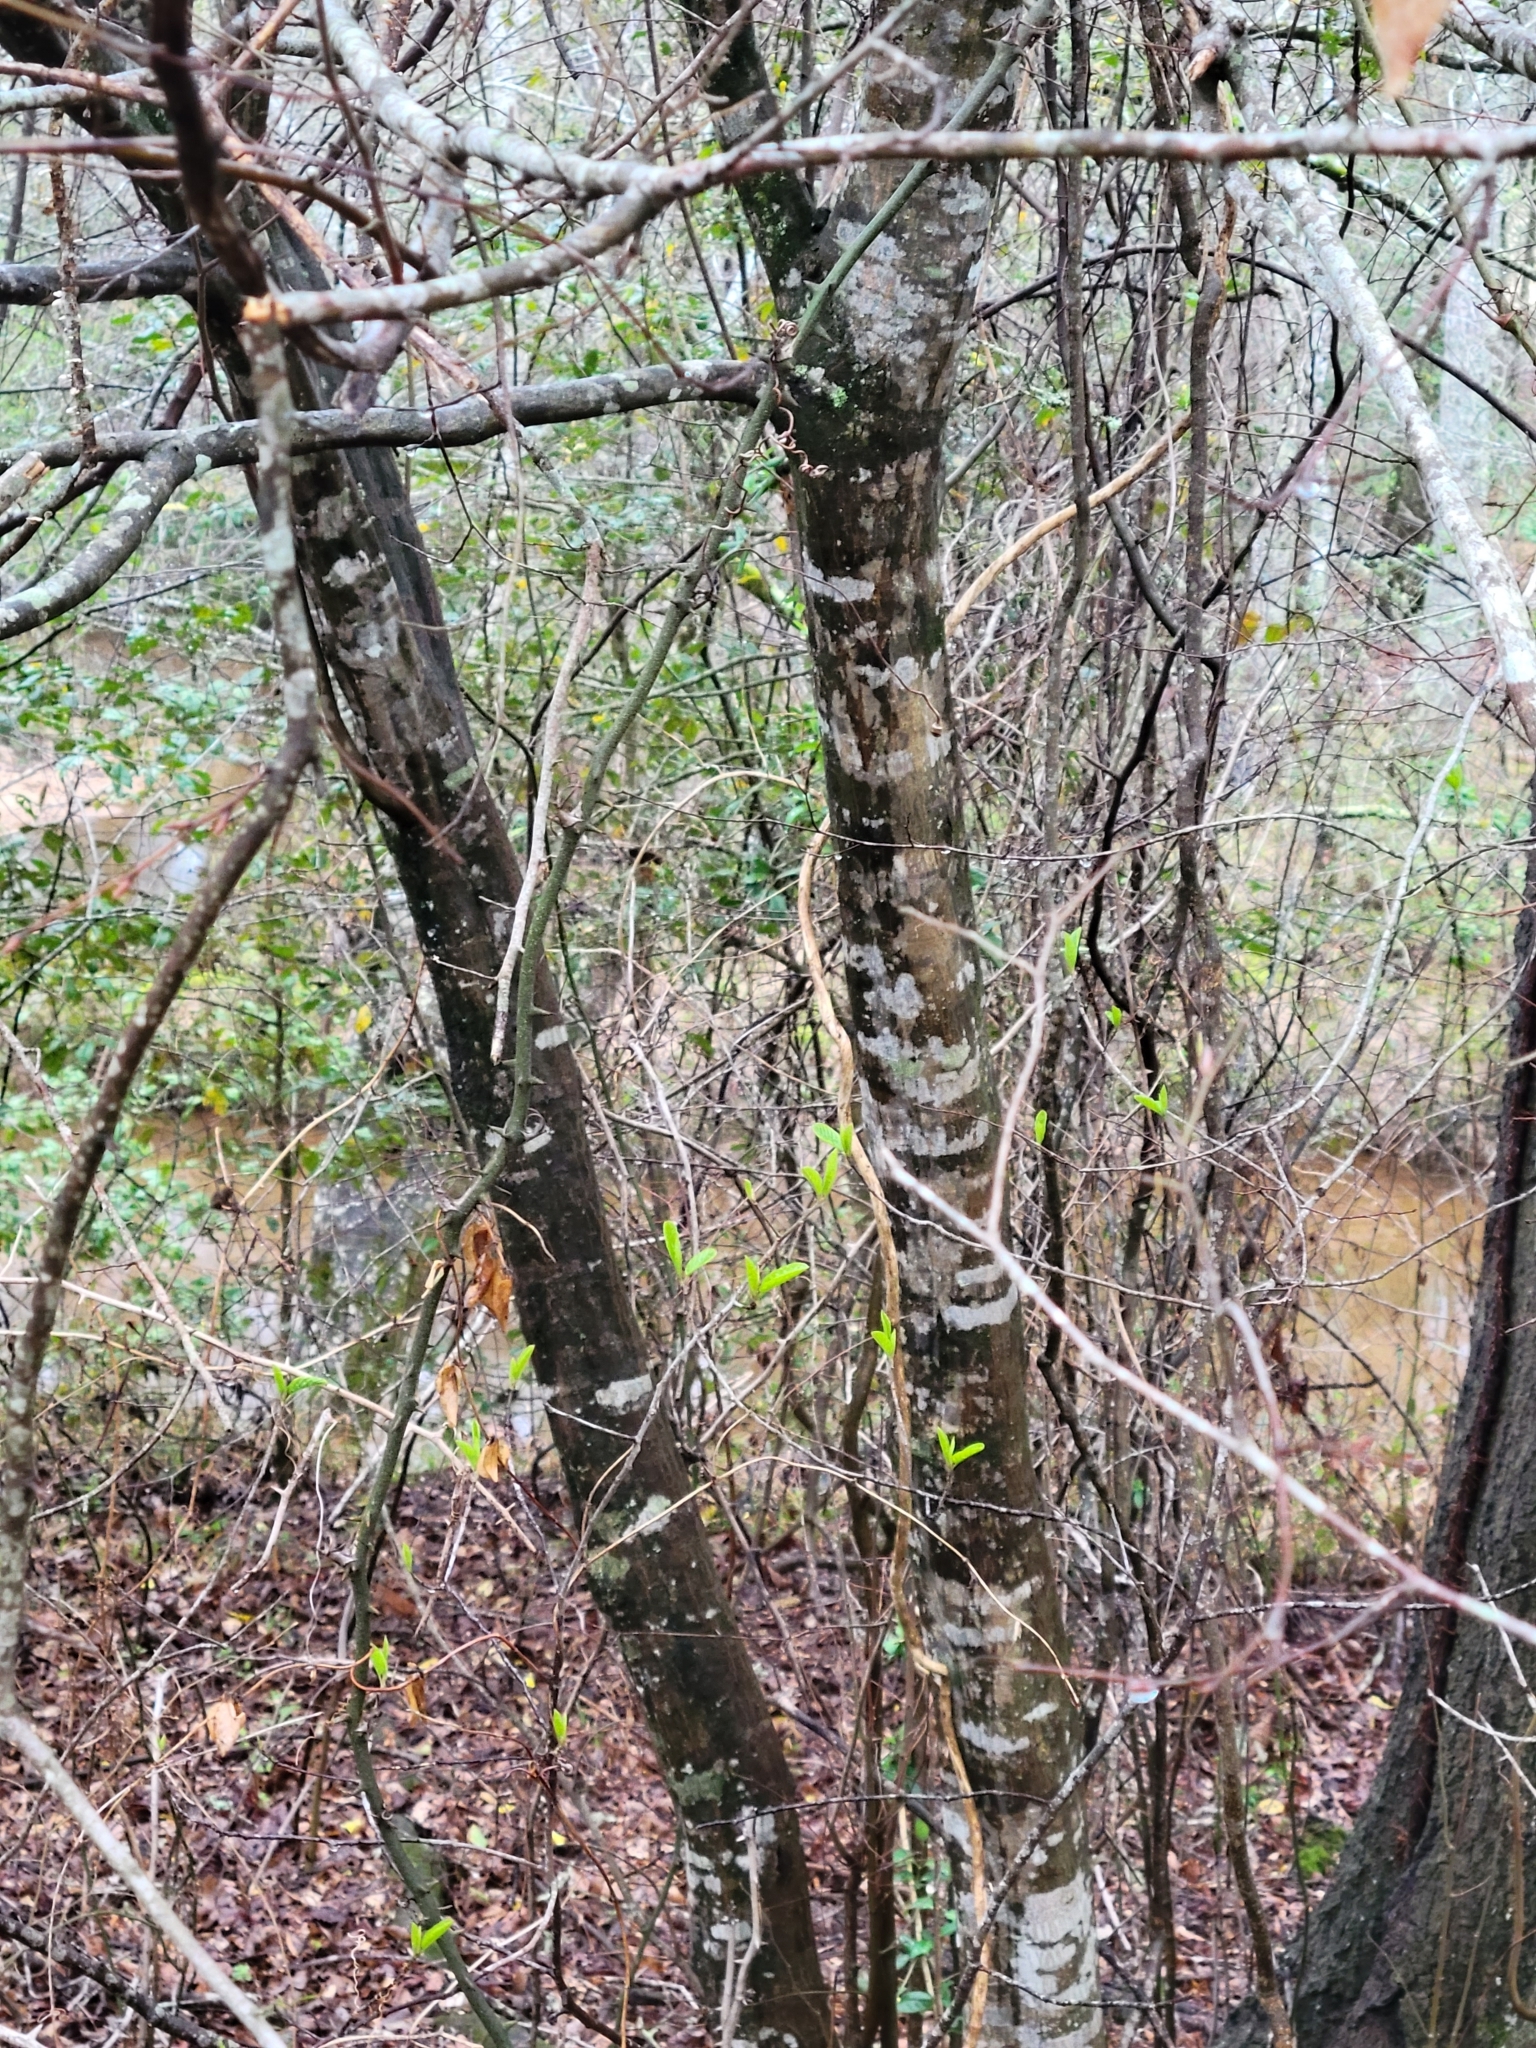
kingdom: Plantae
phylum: Tracheophyta
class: Magnoliopsida
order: Fagales
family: Betulaceae
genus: Carpinus
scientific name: Carpinus caroliniana
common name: American hornbeam
